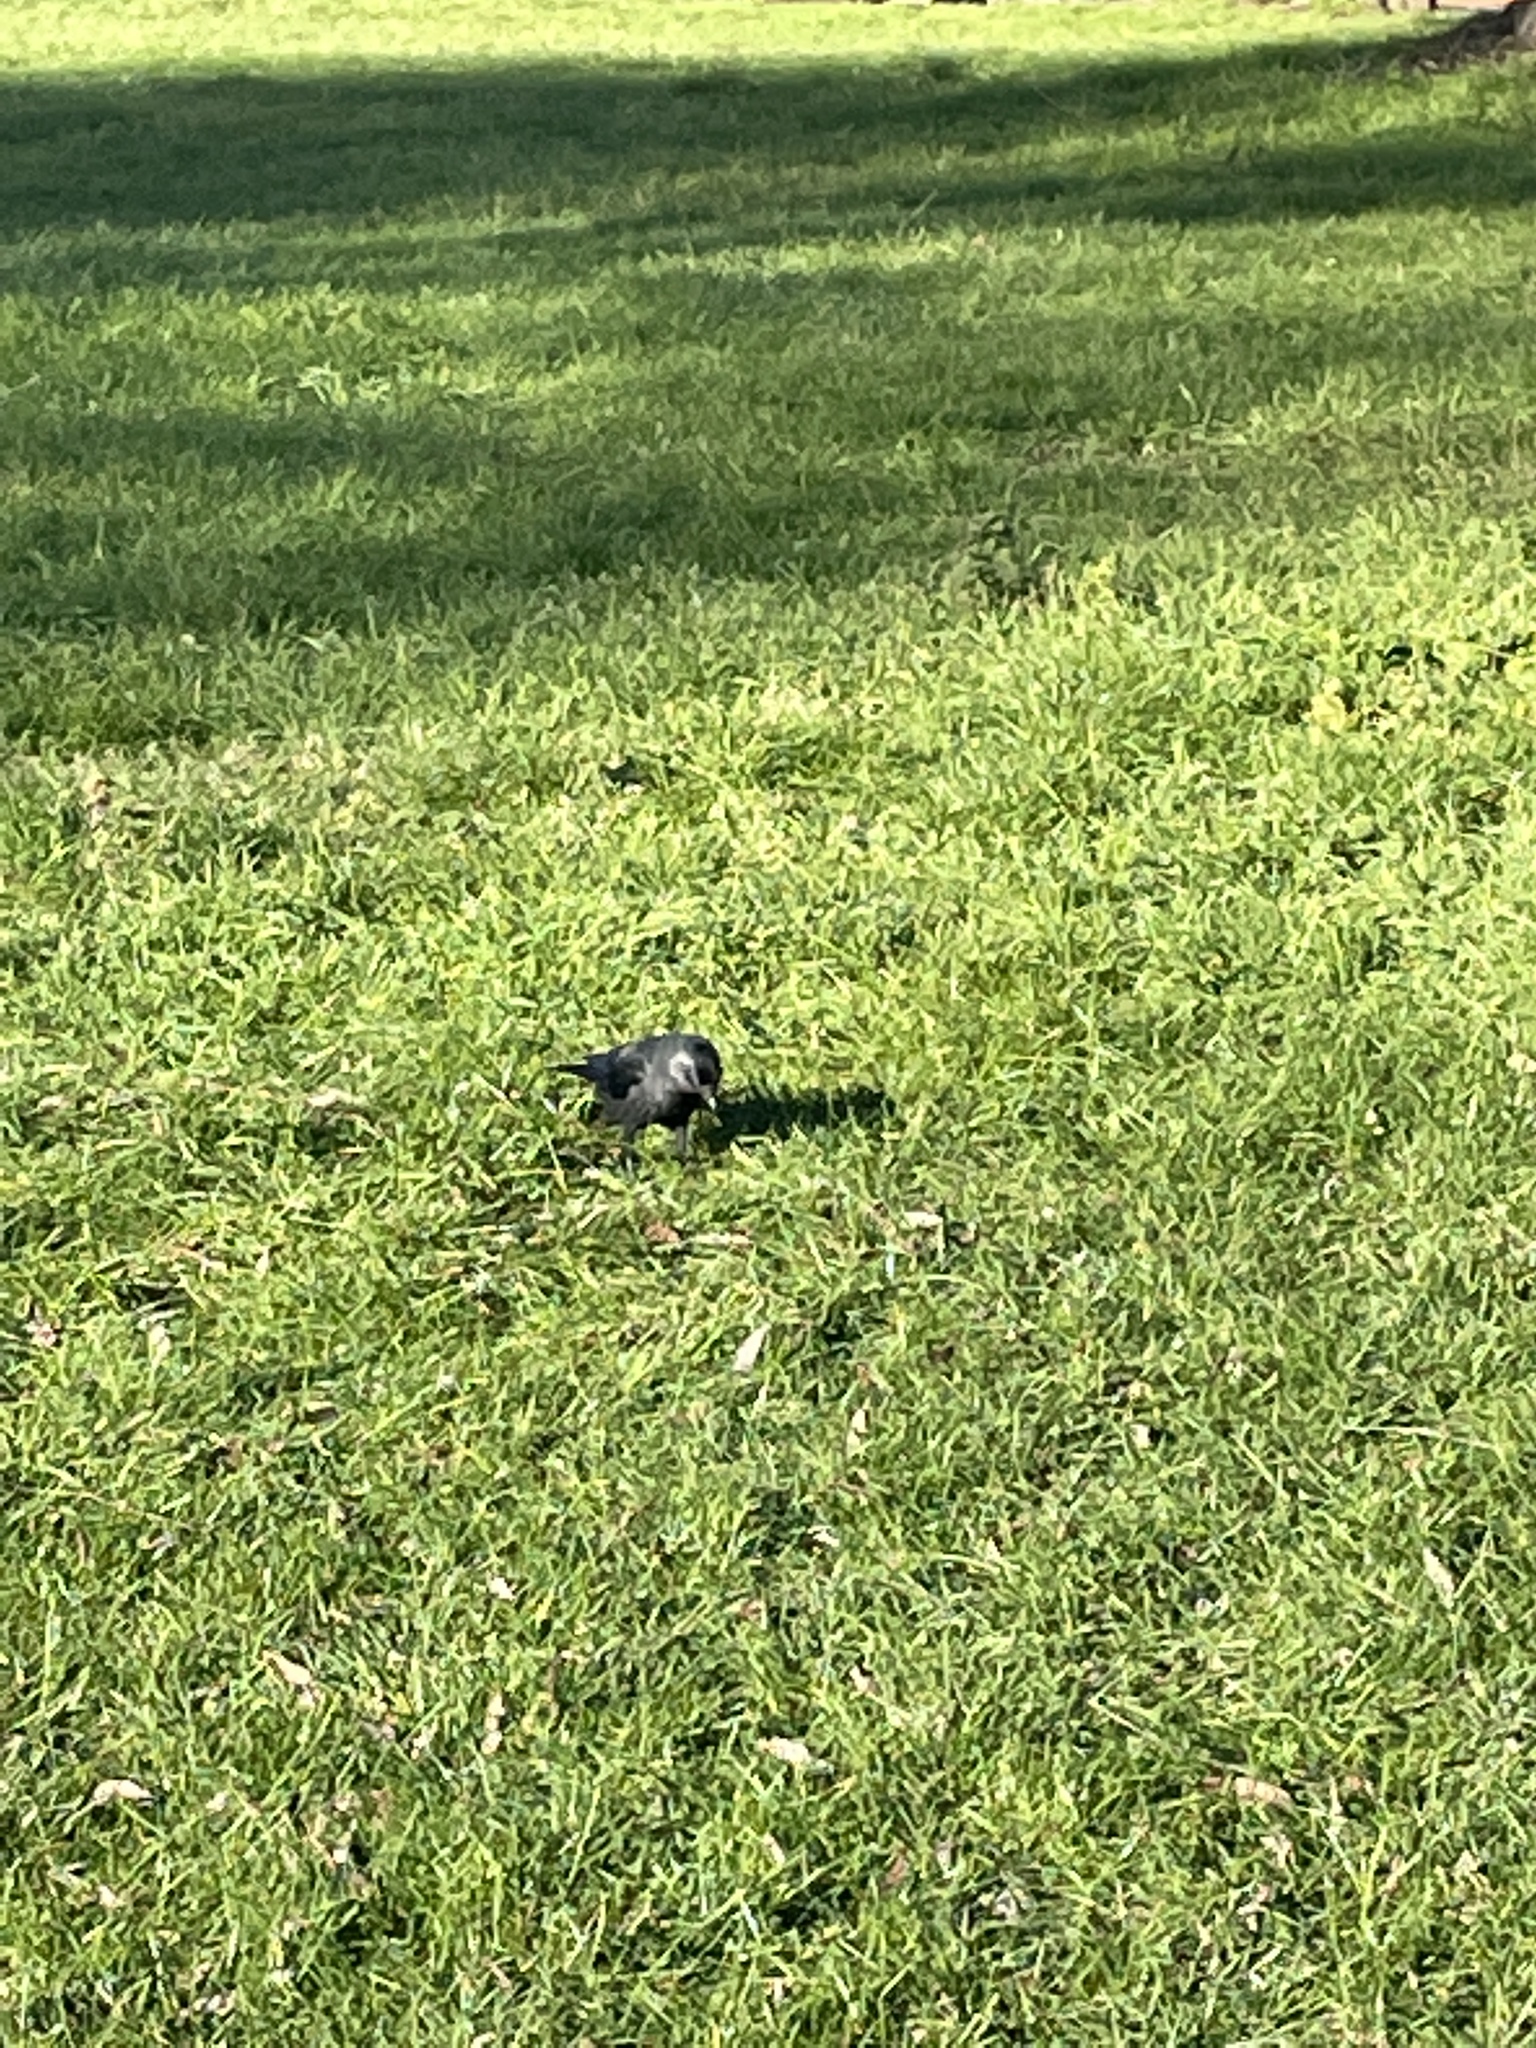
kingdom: Animalia
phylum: Chordata
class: Aves
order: Passeriformes
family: Corvidae
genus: Coloeus
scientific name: Coloeus monedula
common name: Western jackdaw
